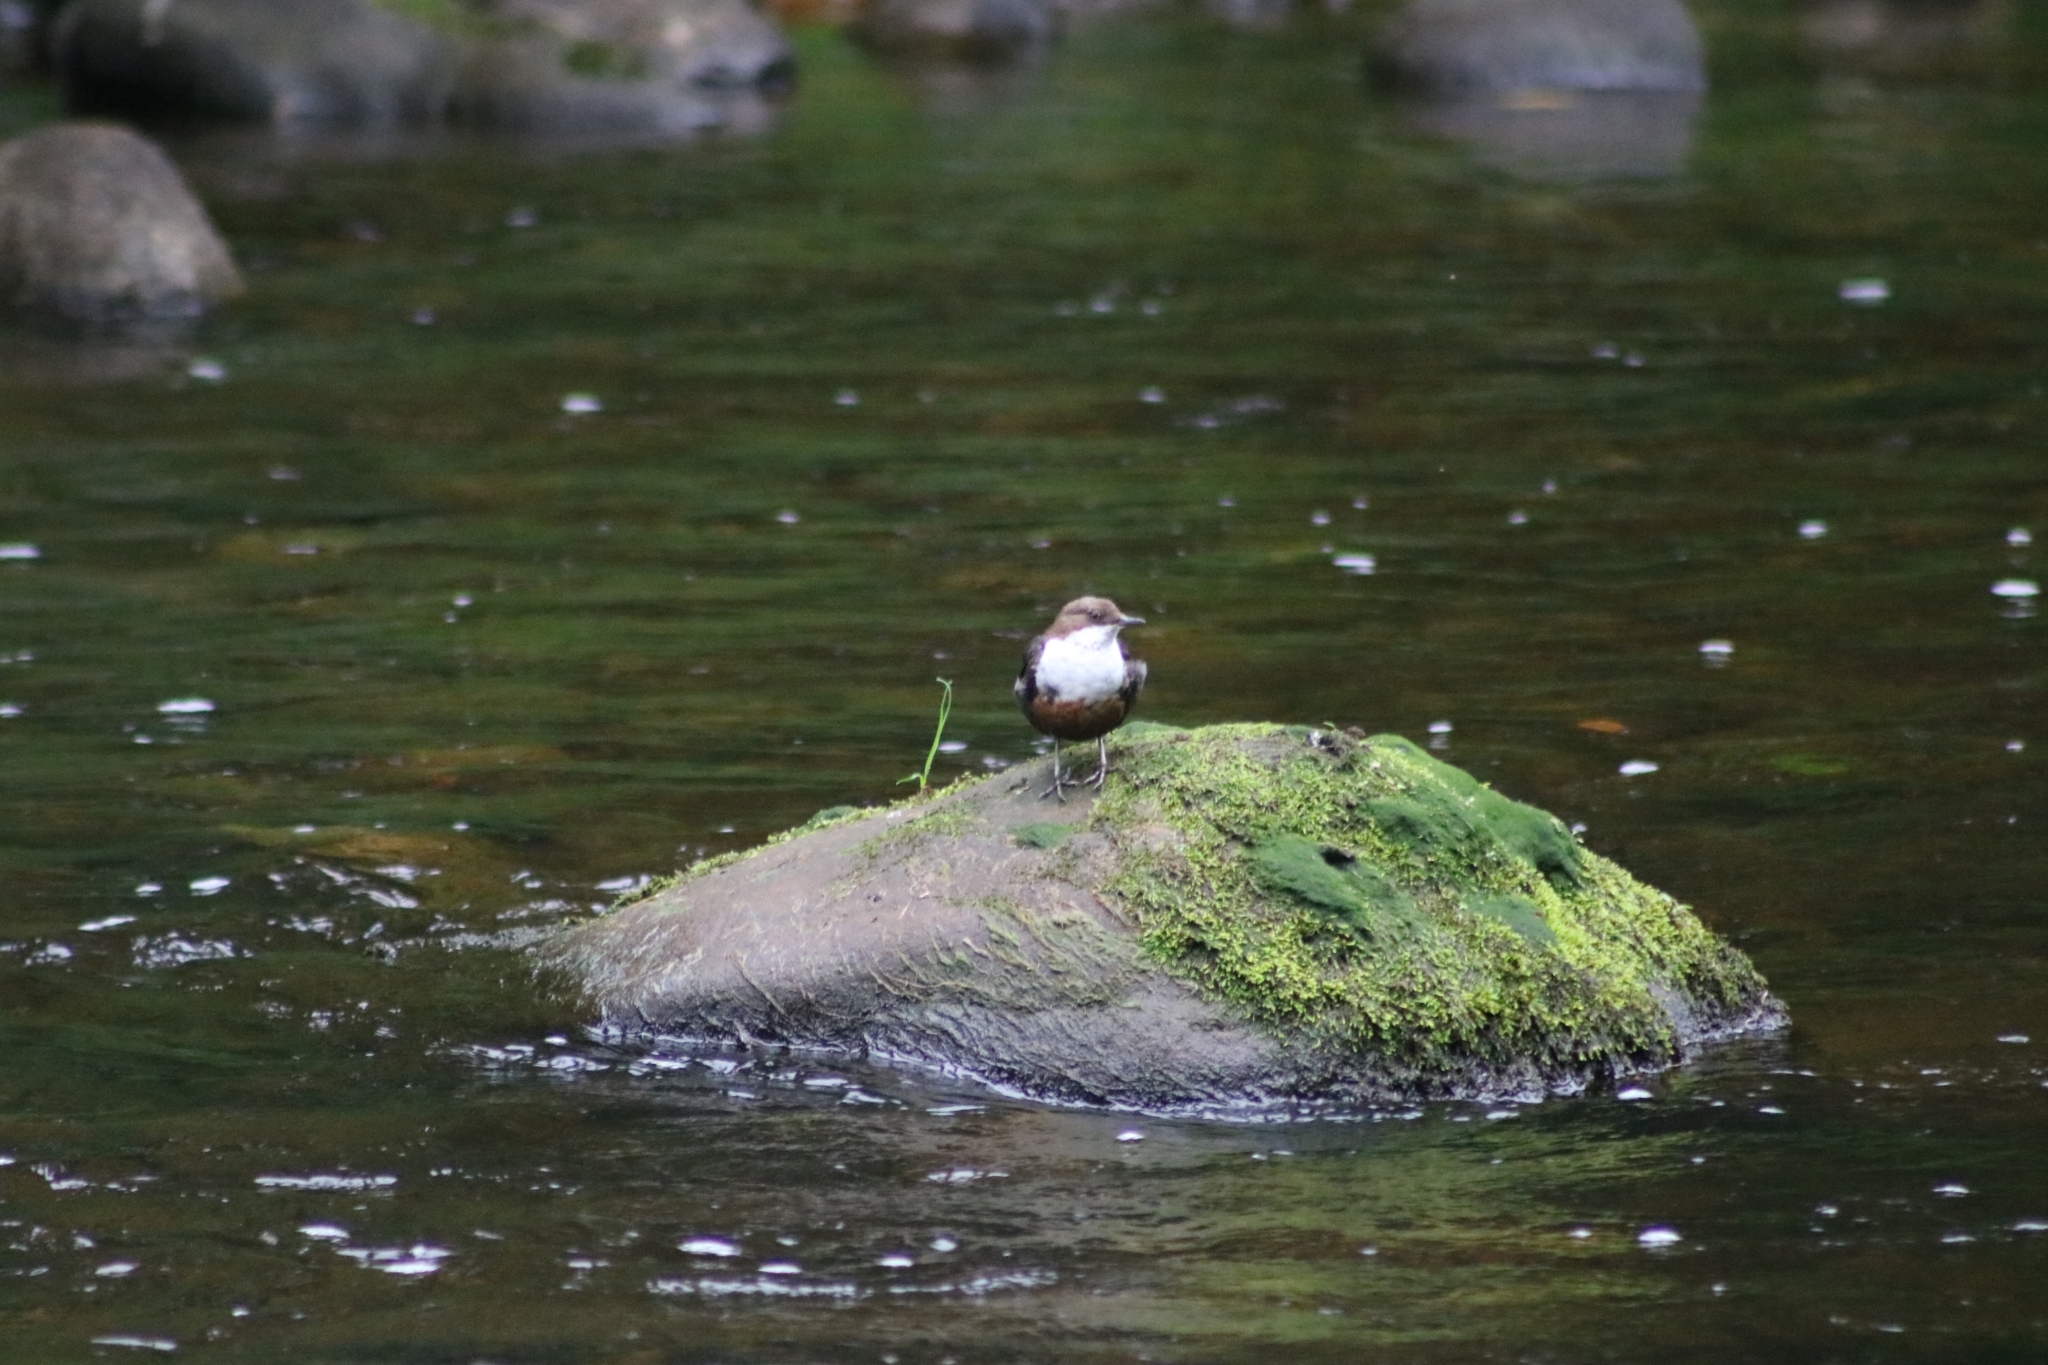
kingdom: Animalia
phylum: Chordata
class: Aves
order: Passeriformes
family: Cinclidae
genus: Cinclus
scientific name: Cinclus cinclus
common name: White-throated dipper
